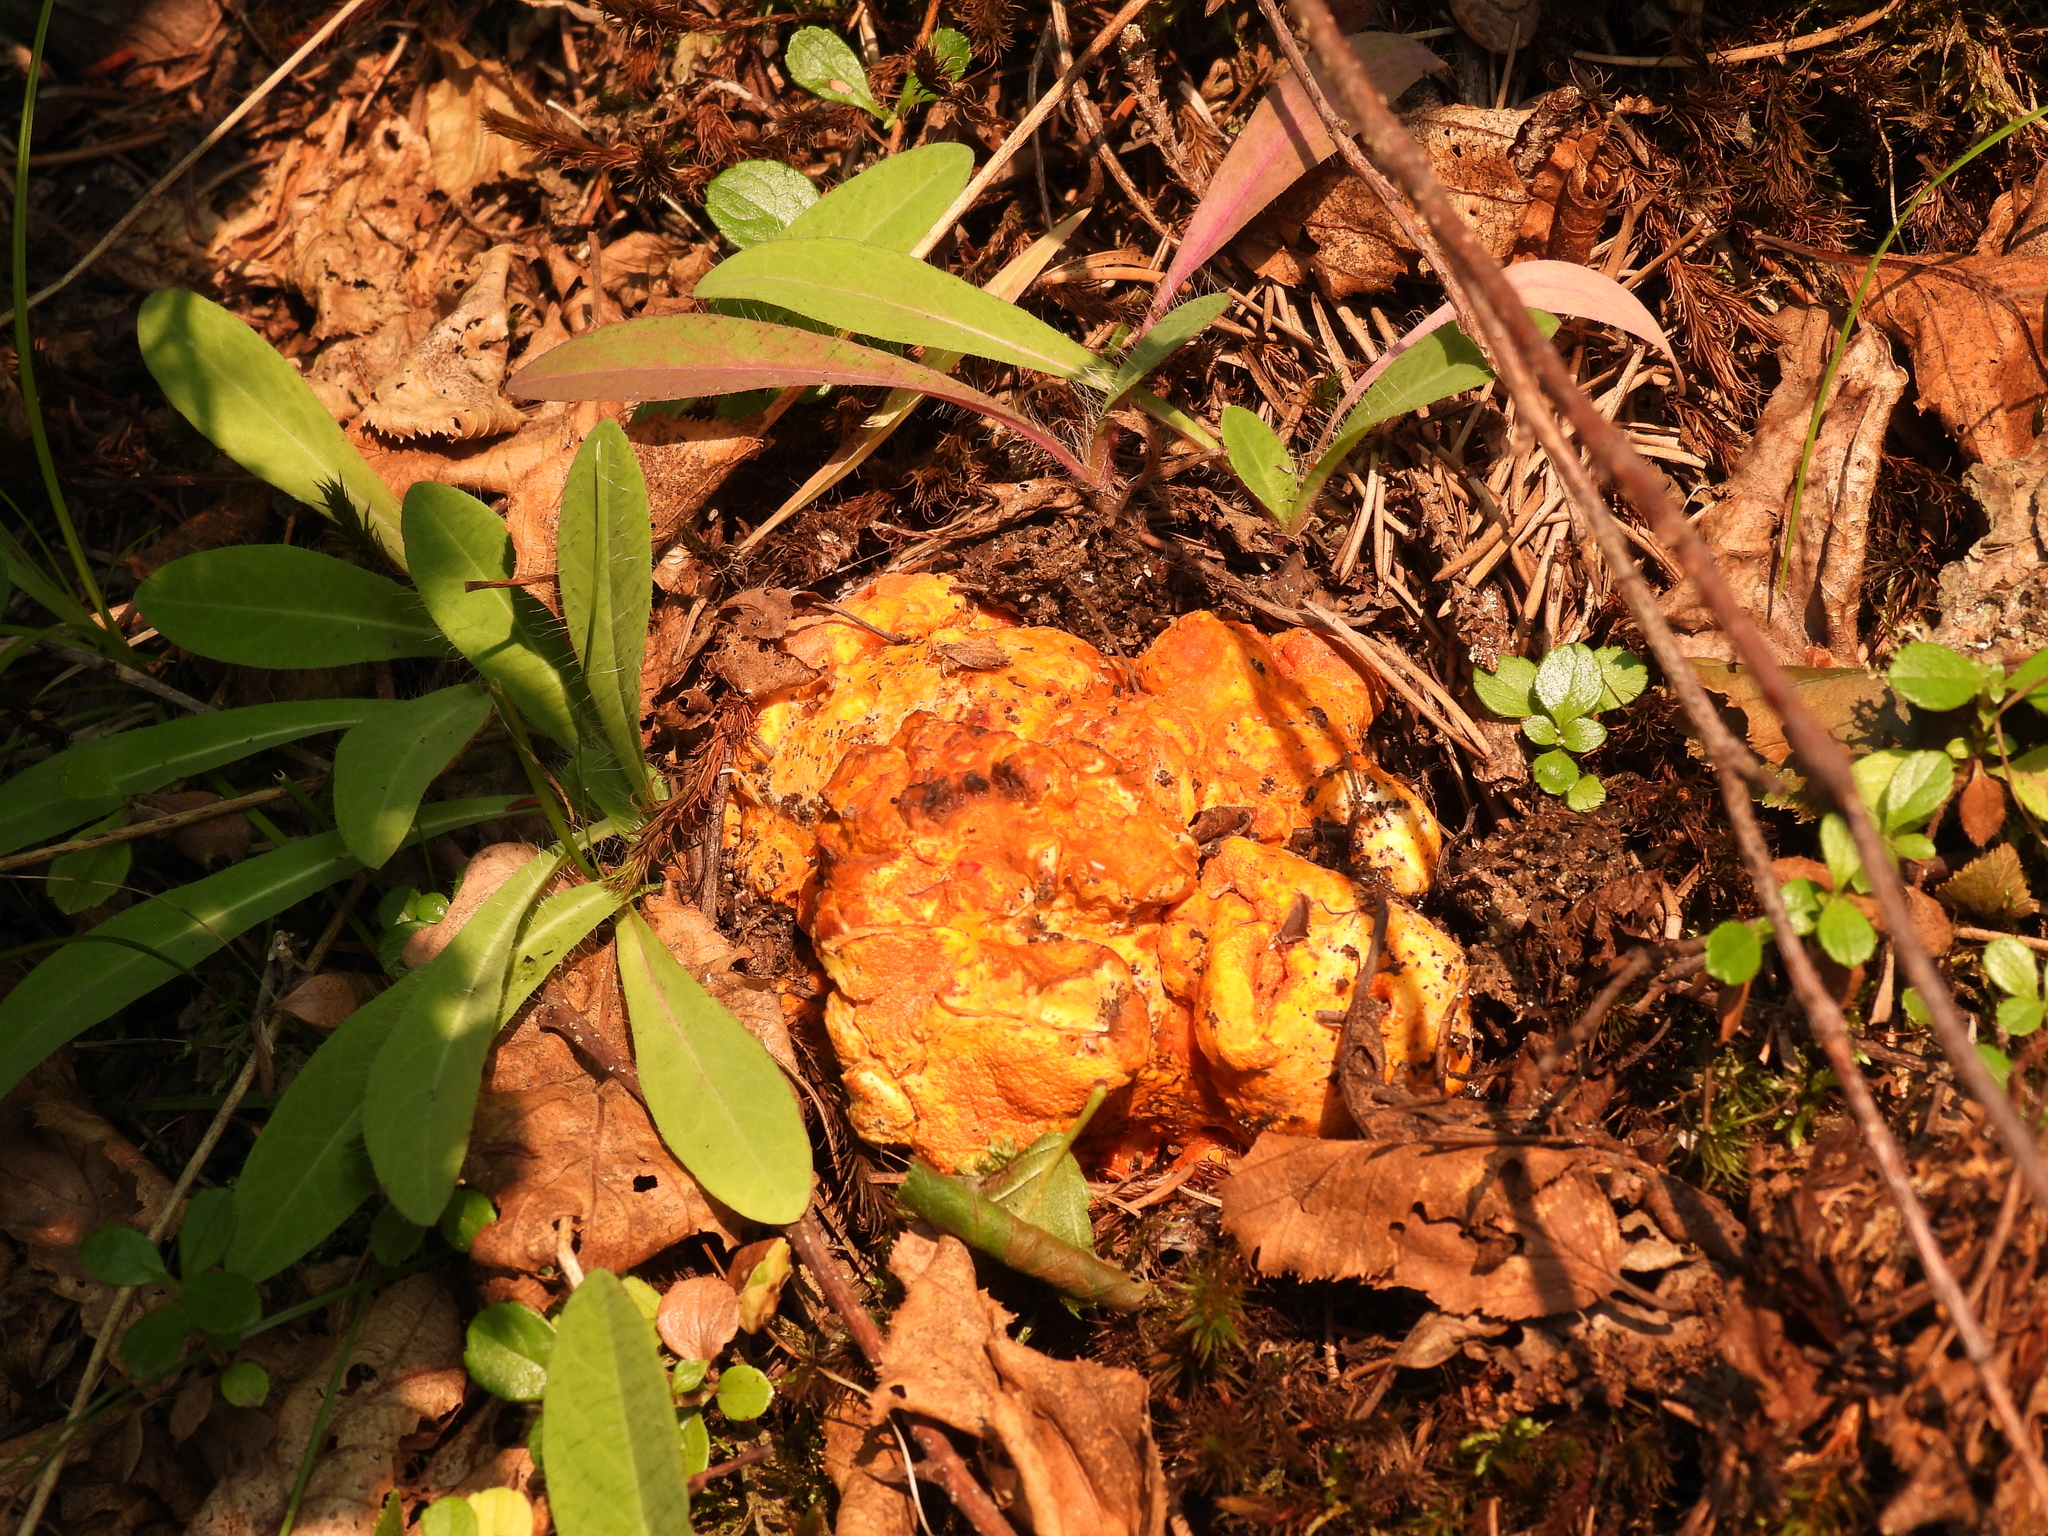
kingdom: Fungi
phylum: Ascomycota
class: Sordariomycetes
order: Hypocreales
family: Hypocreaceae
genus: Hypomyces
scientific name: Hypomyces lactifluorum
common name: Lobster mushroom
